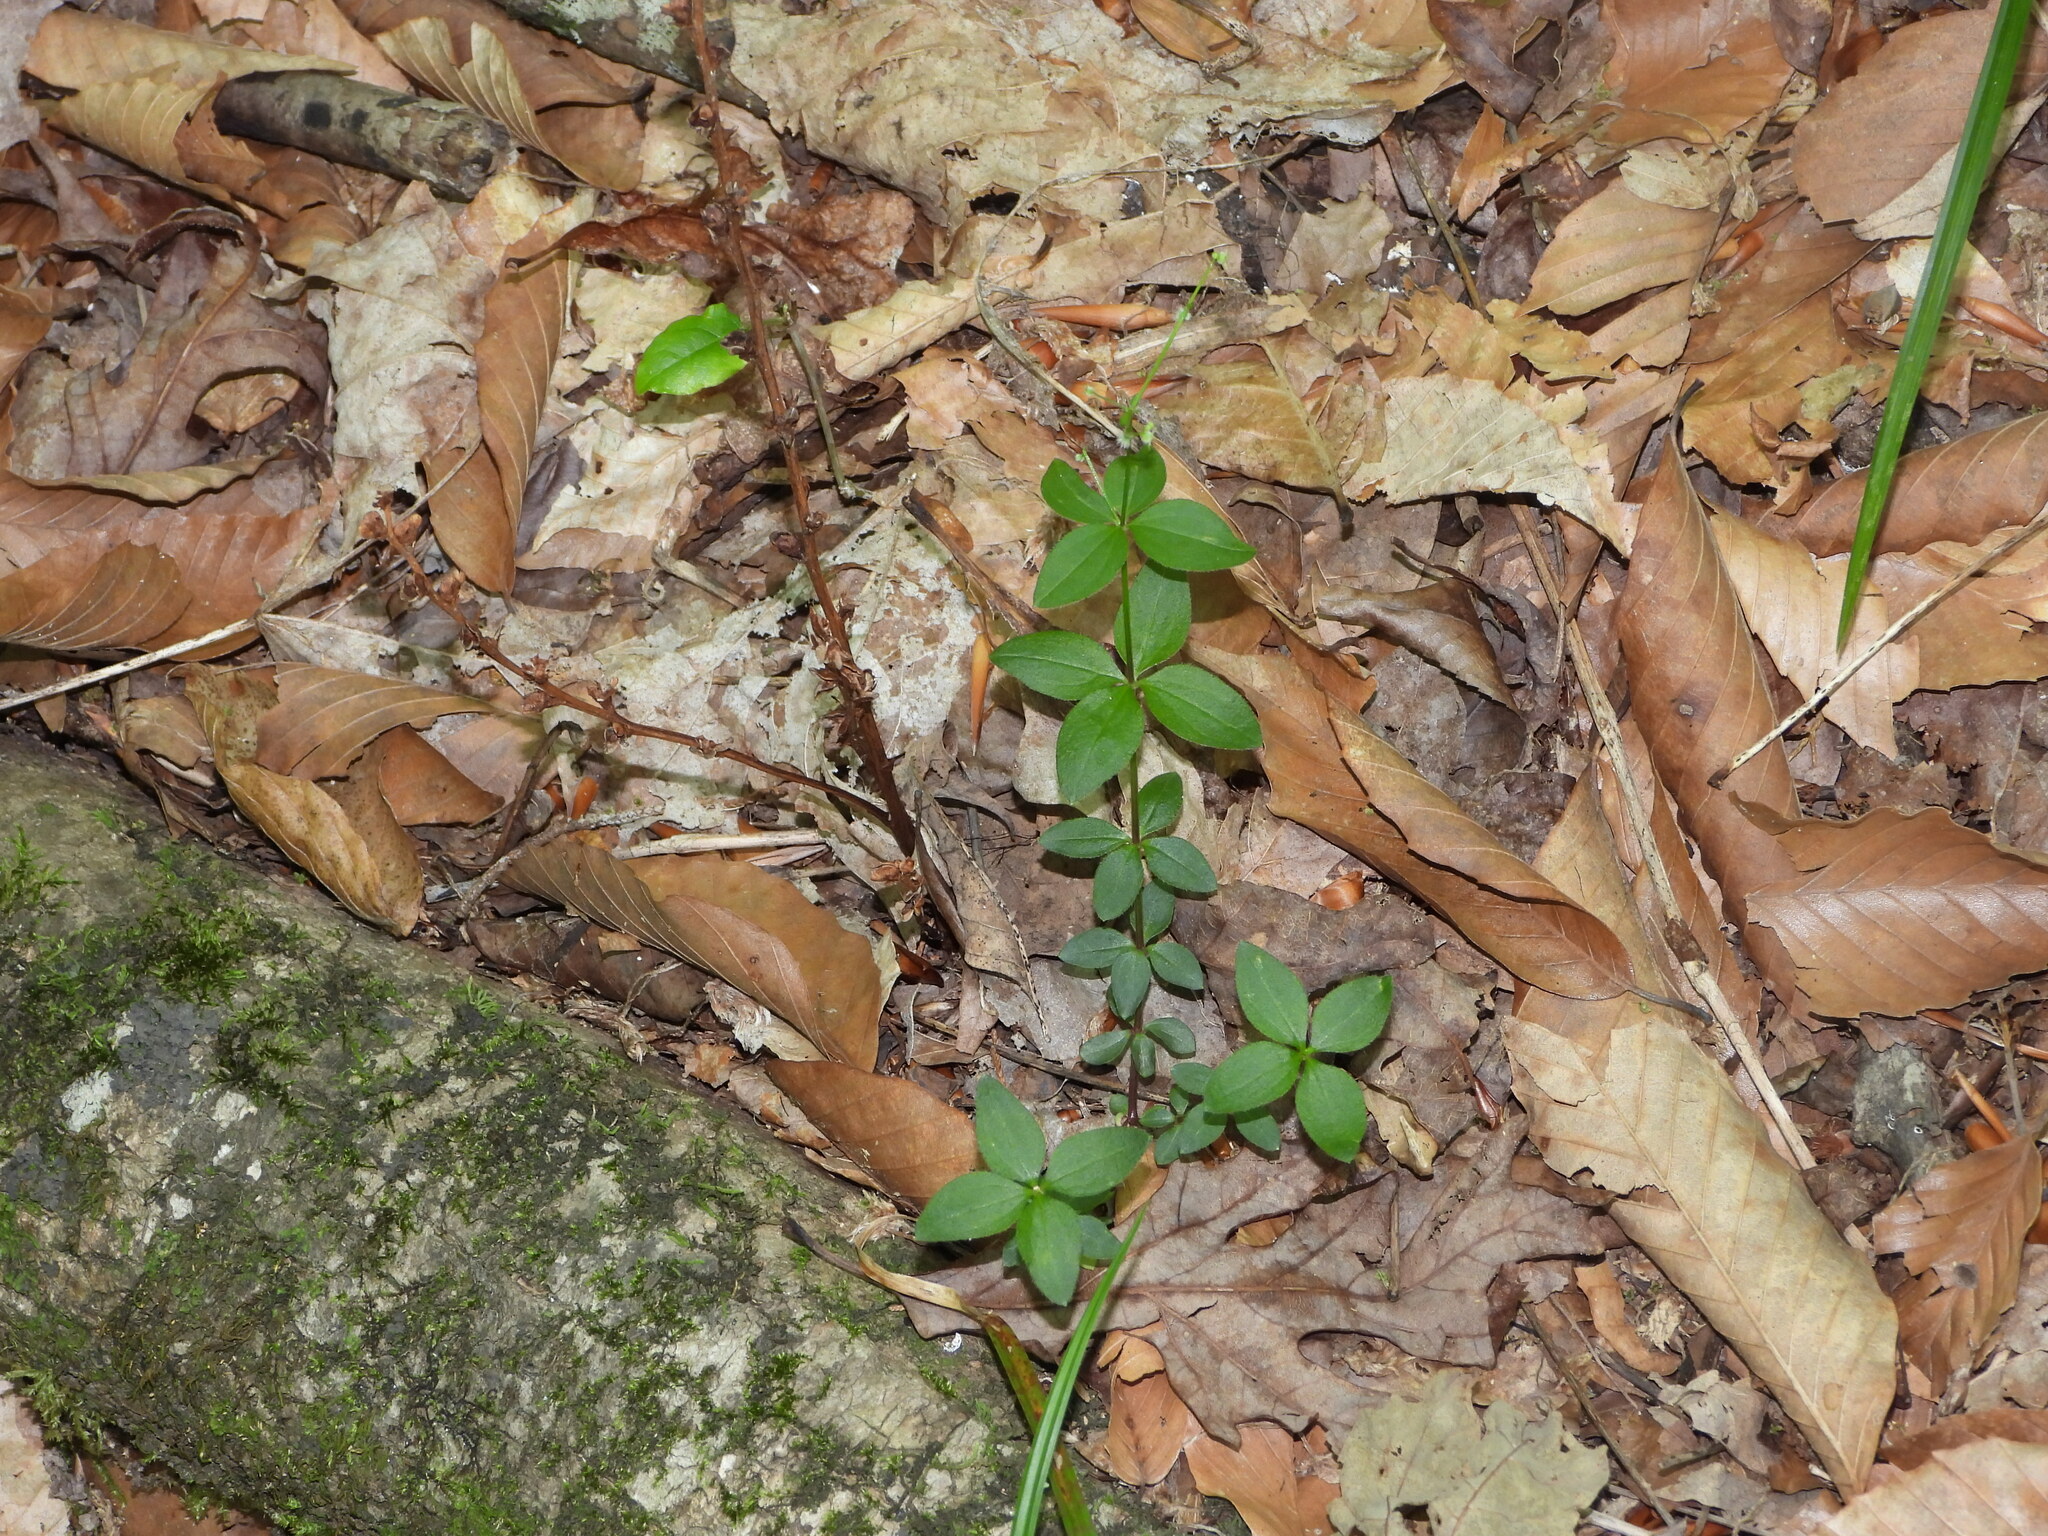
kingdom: Plantae
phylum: Tracheophyta
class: Magnoliopsida
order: Gentianales
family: Rubiaceae
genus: Galium
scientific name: Galium circaezans
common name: Forest bedstraw
